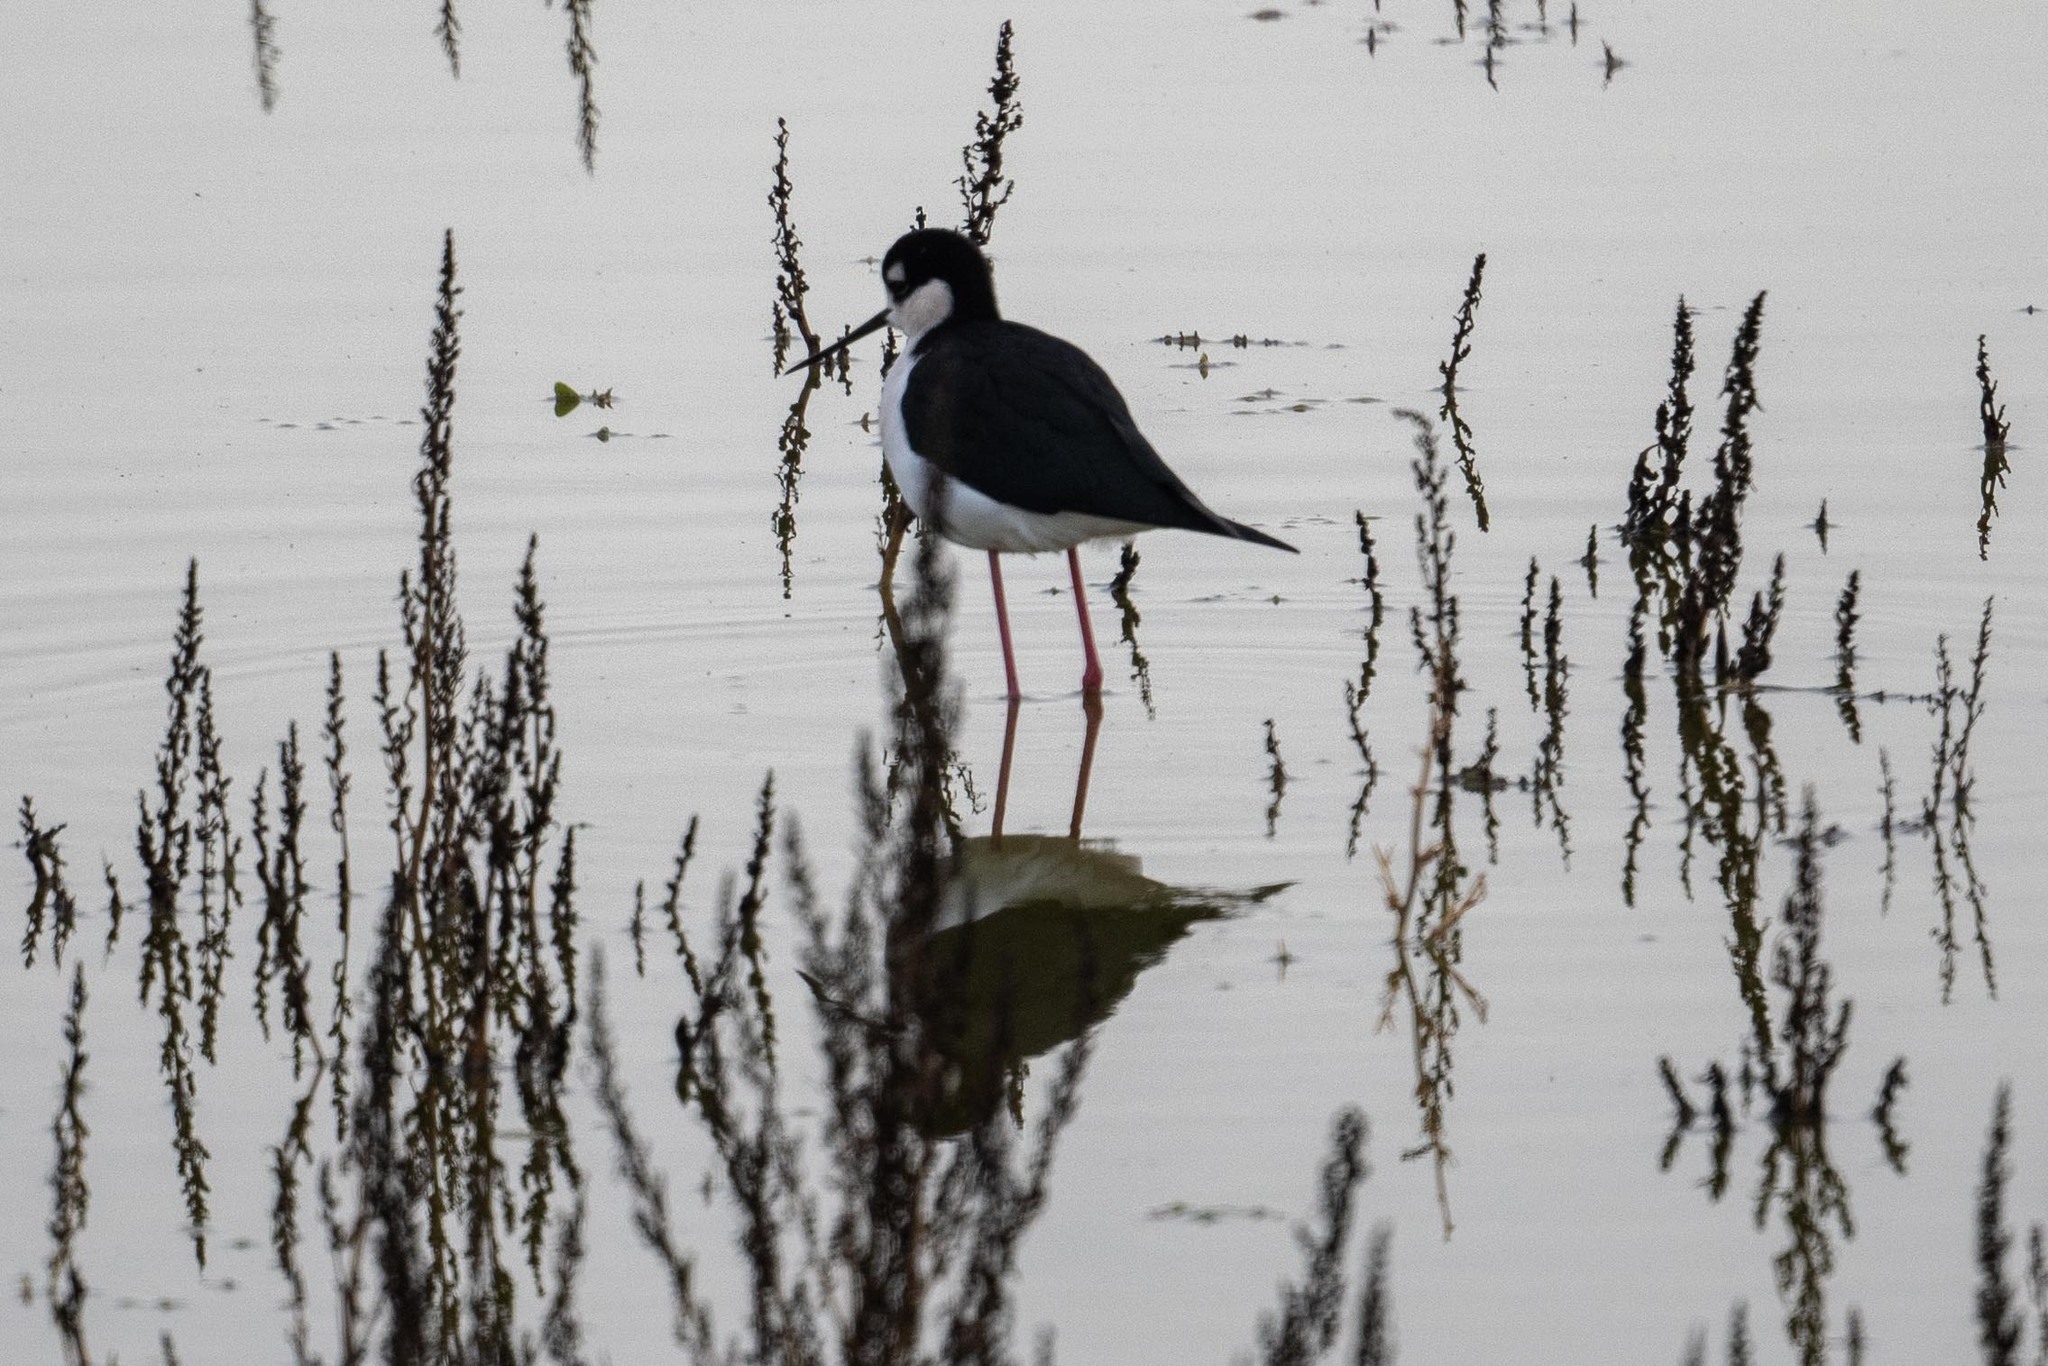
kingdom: Animalia
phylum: Chordata
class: Aves
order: Charadriiformes
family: Recurvirostridae
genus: Himantopus
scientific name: Himantopus mexicanus
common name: Black-necked stilt
